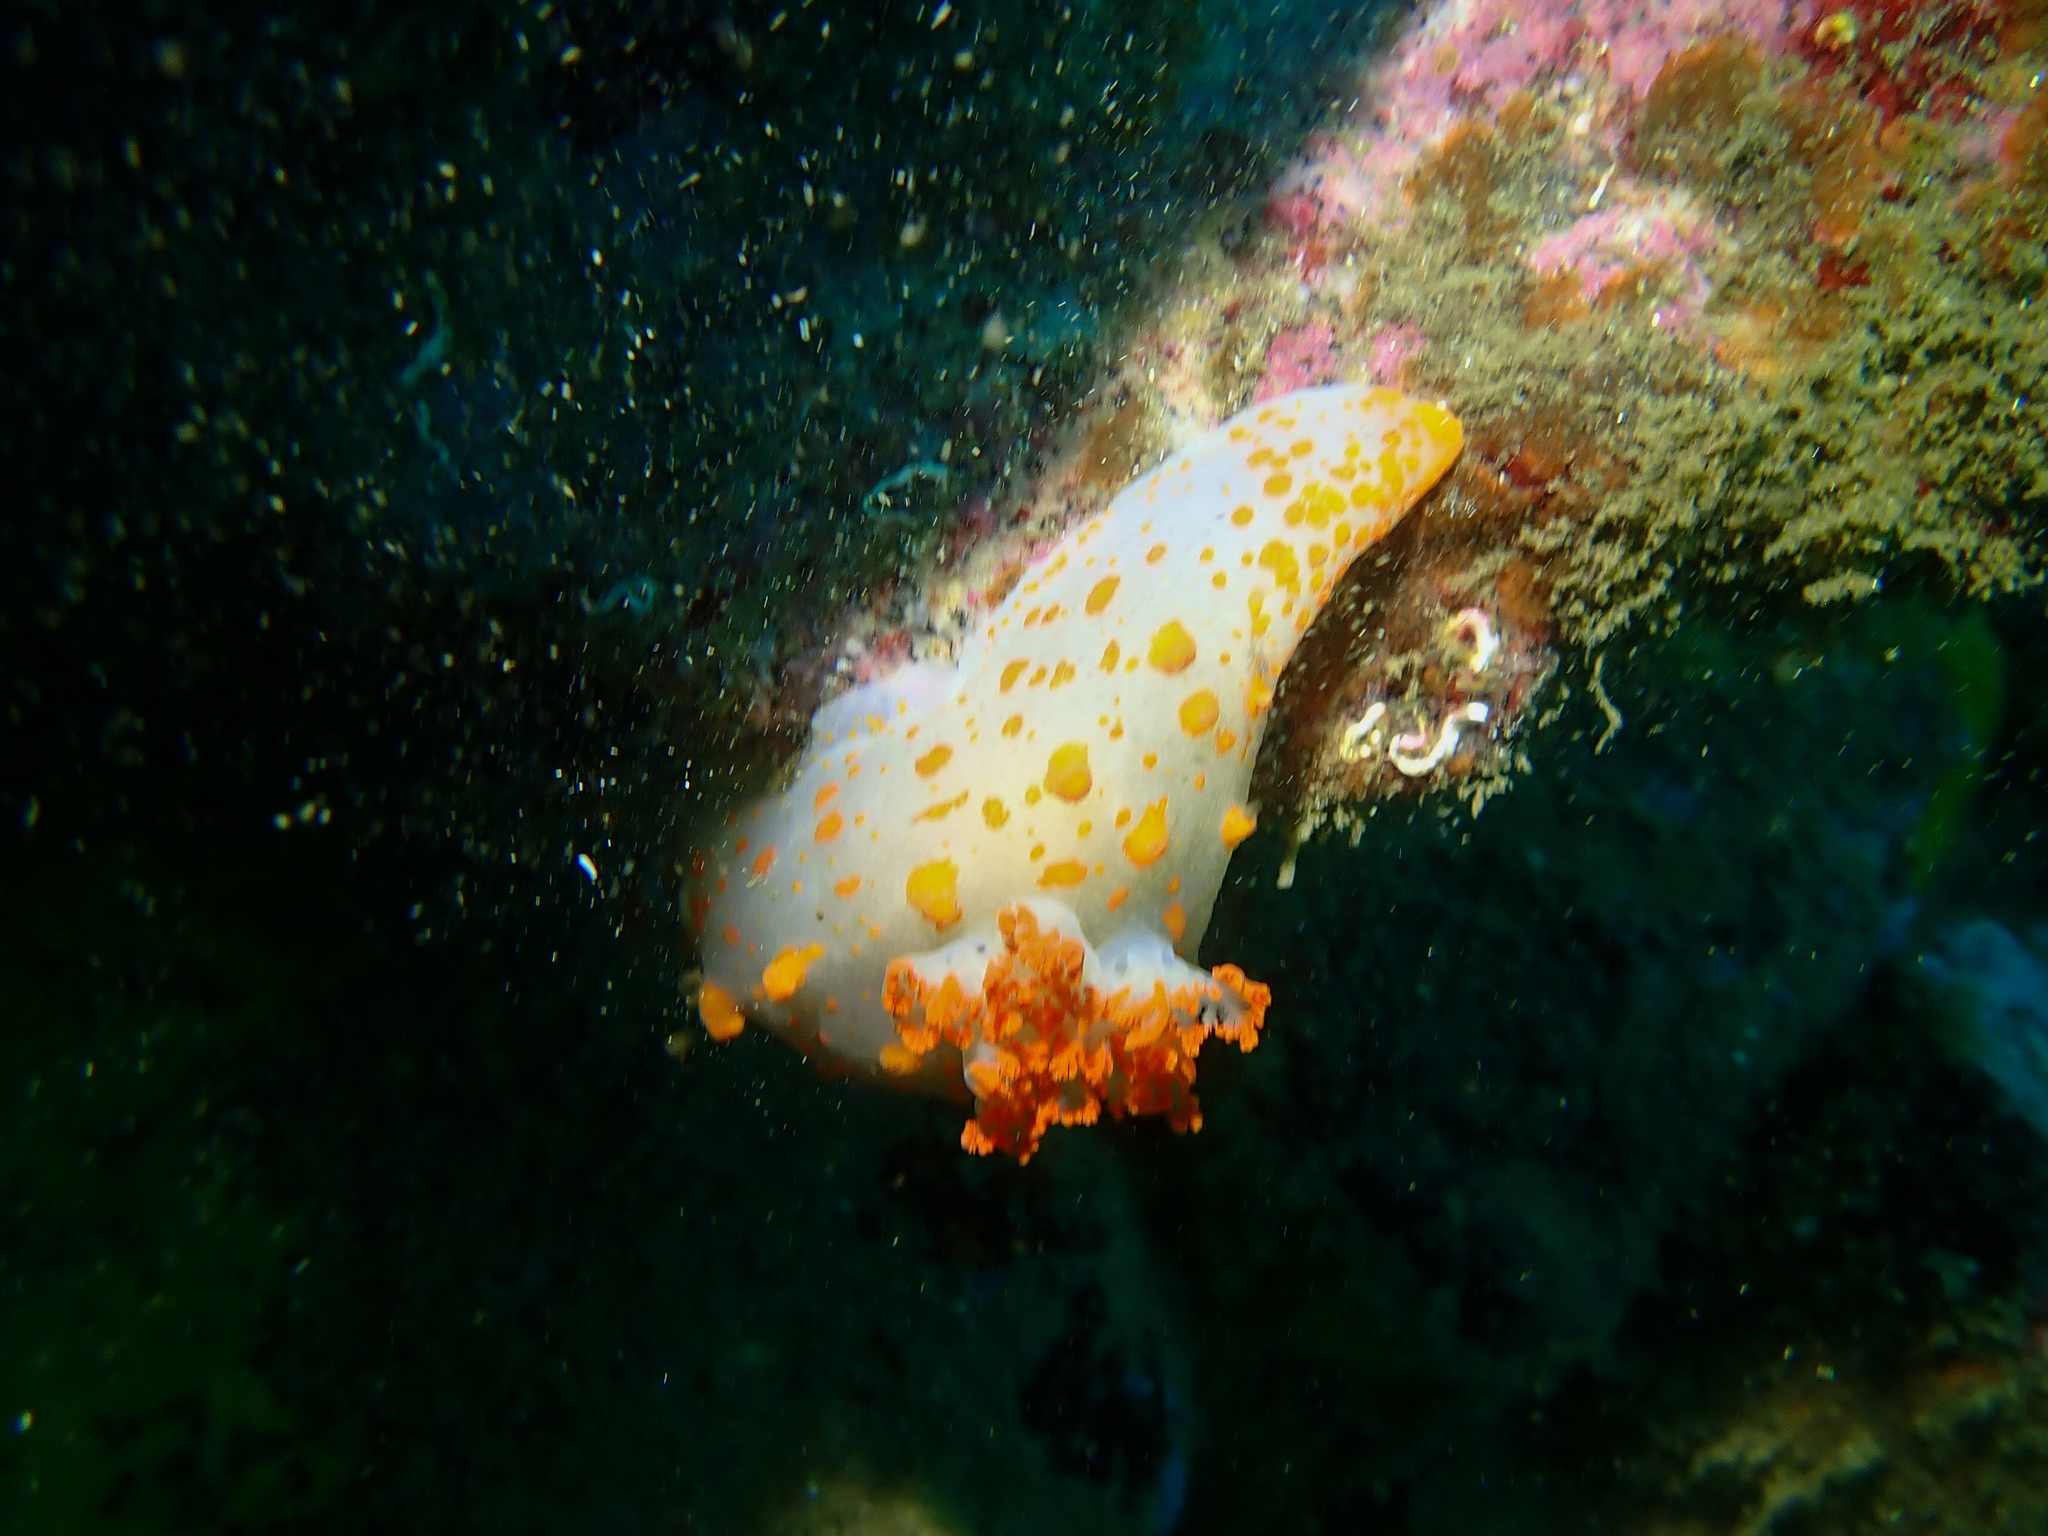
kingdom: Animalia
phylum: Mollusca
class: Gastropoda
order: Nudibranchia
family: Polyceridae
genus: Triopha
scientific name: Triopha catalinae
